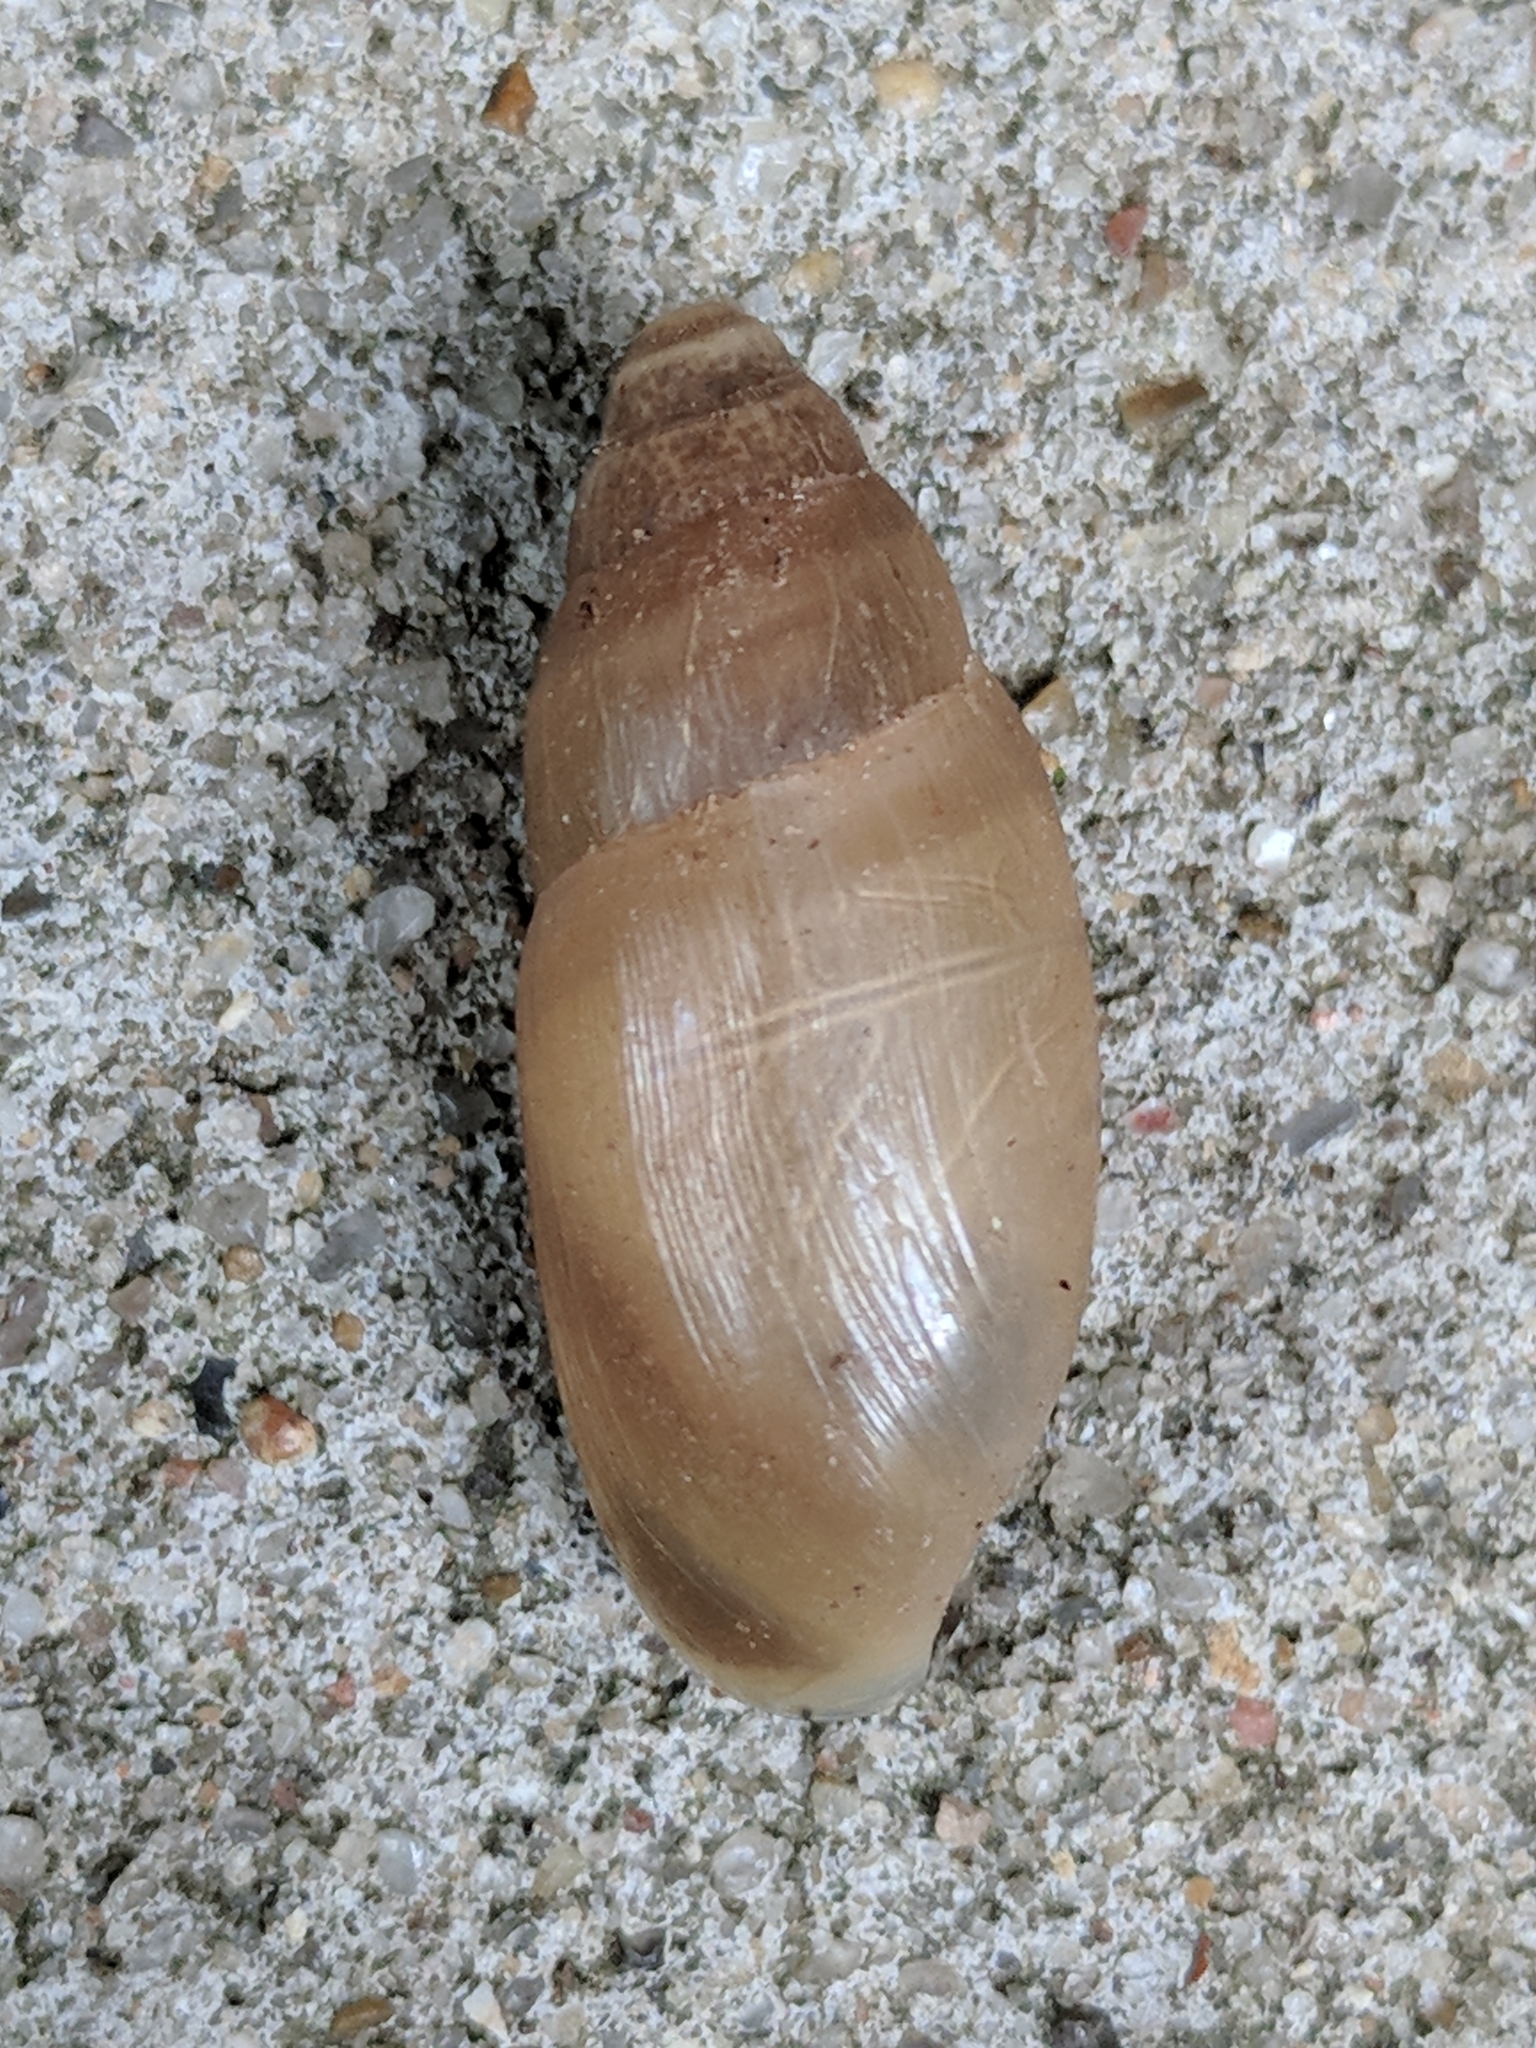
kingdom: Animalia
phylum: Mollusca
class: Gastropoda
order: Stylommatophora
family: Spiraxidae
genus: Euglandina
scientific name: Euglandina singleyana
